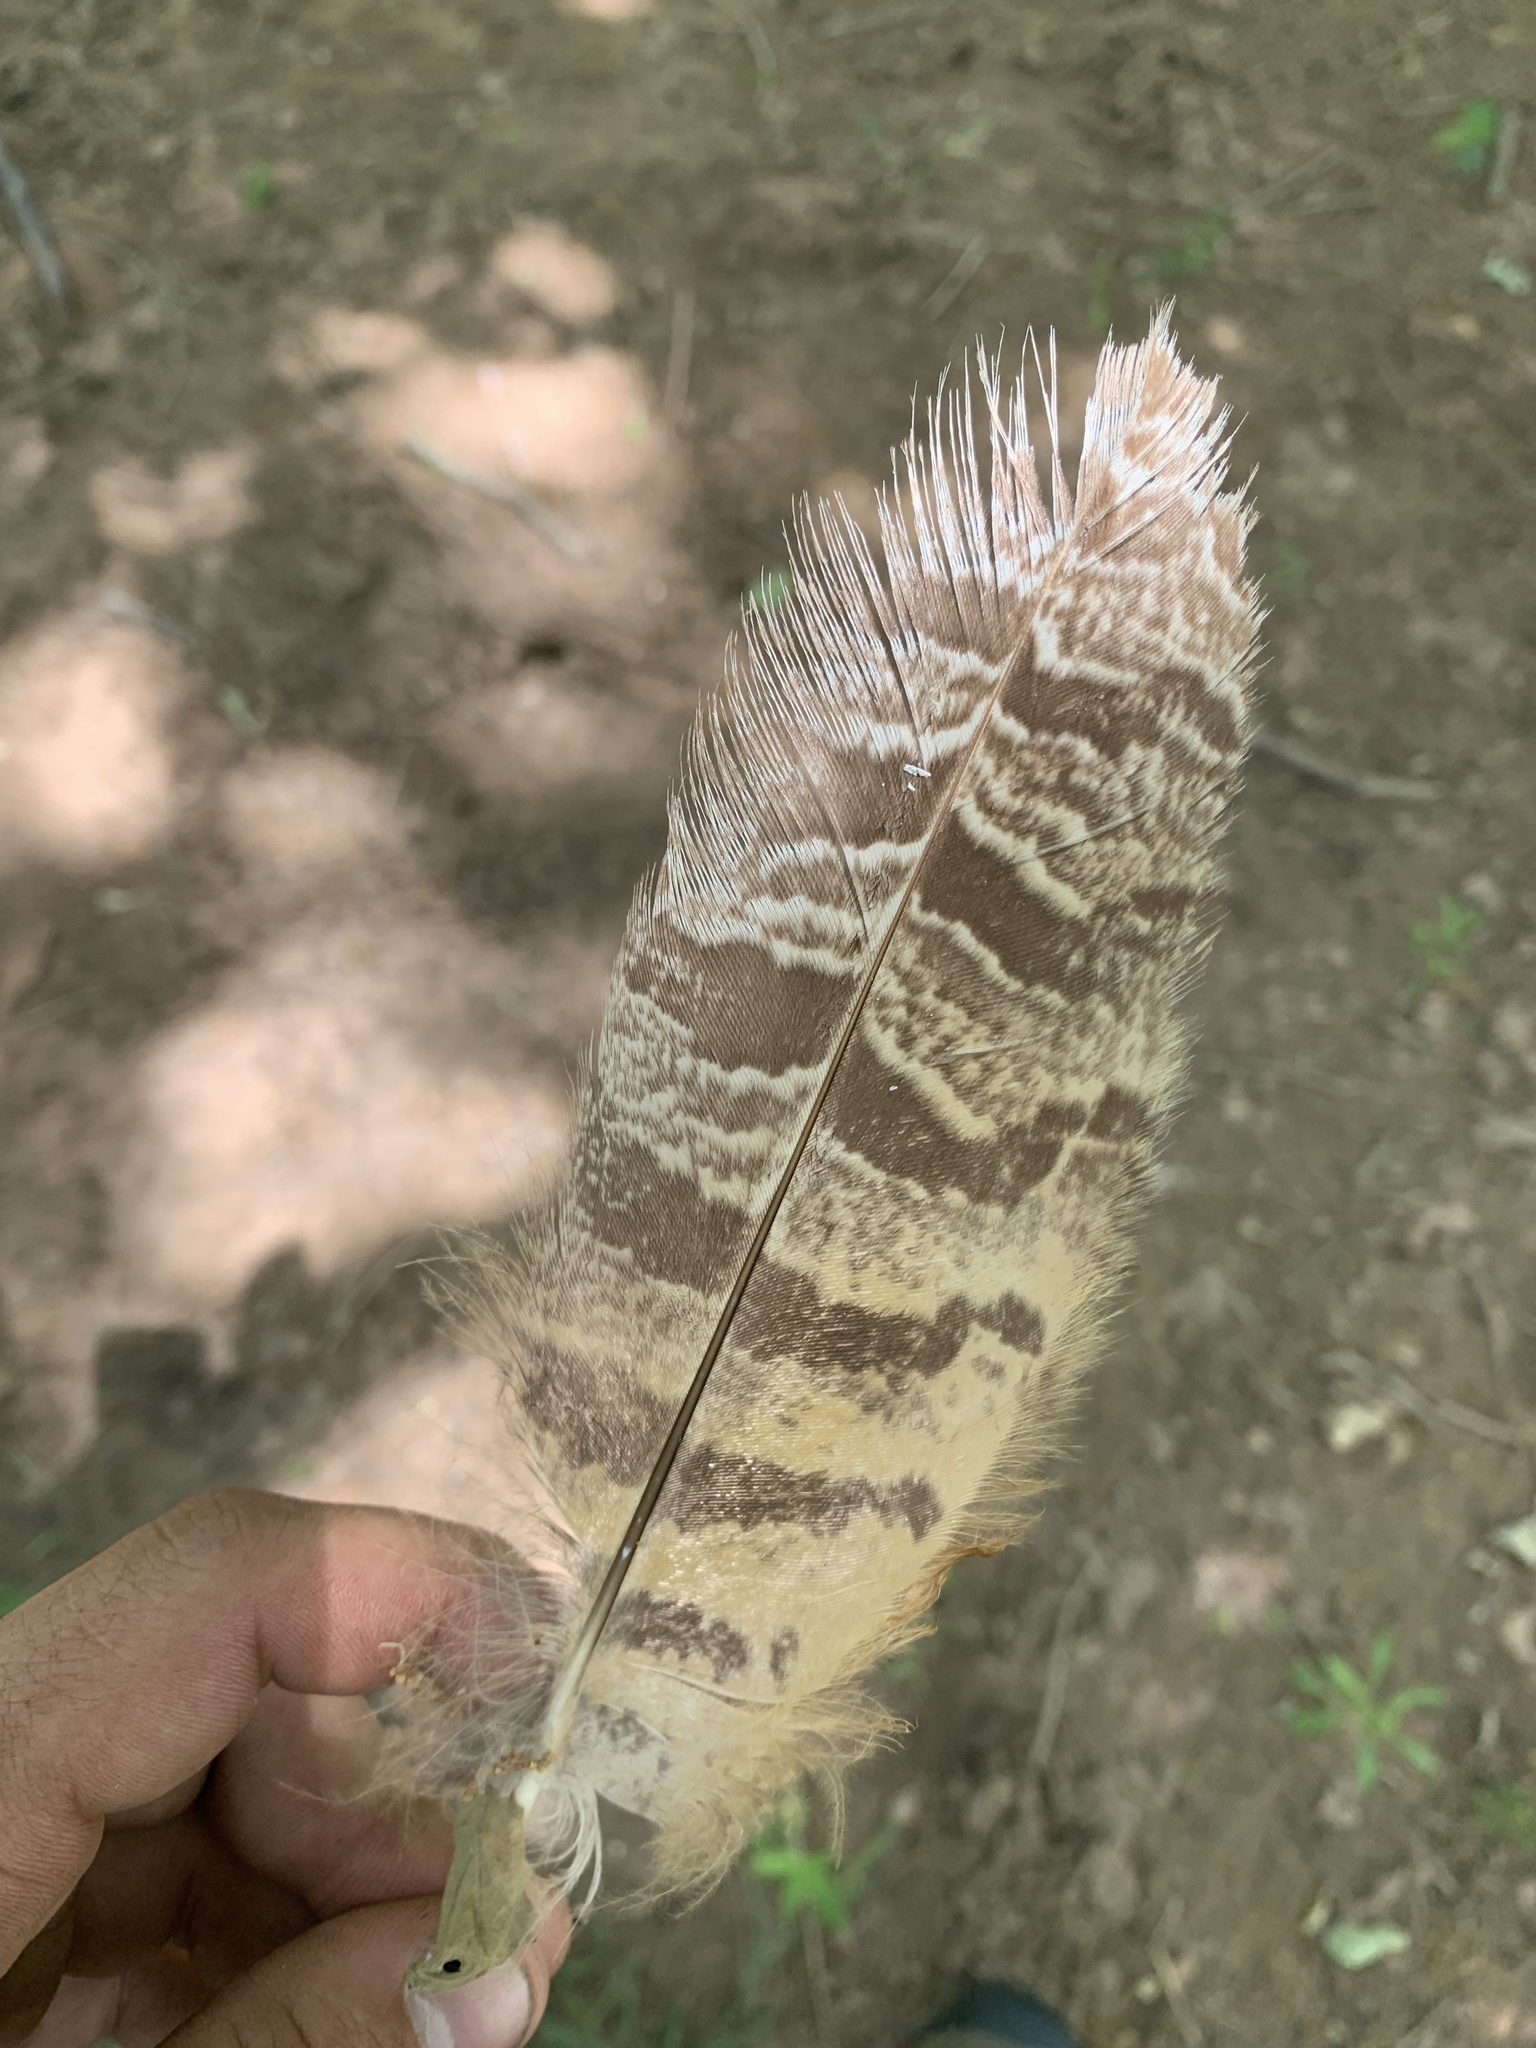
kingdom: Animalia
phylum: Chordata
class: Aves
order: Strigiformes
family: Strigidae
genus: Bubo
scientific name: Bubo virginianus
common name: Great horned owl
